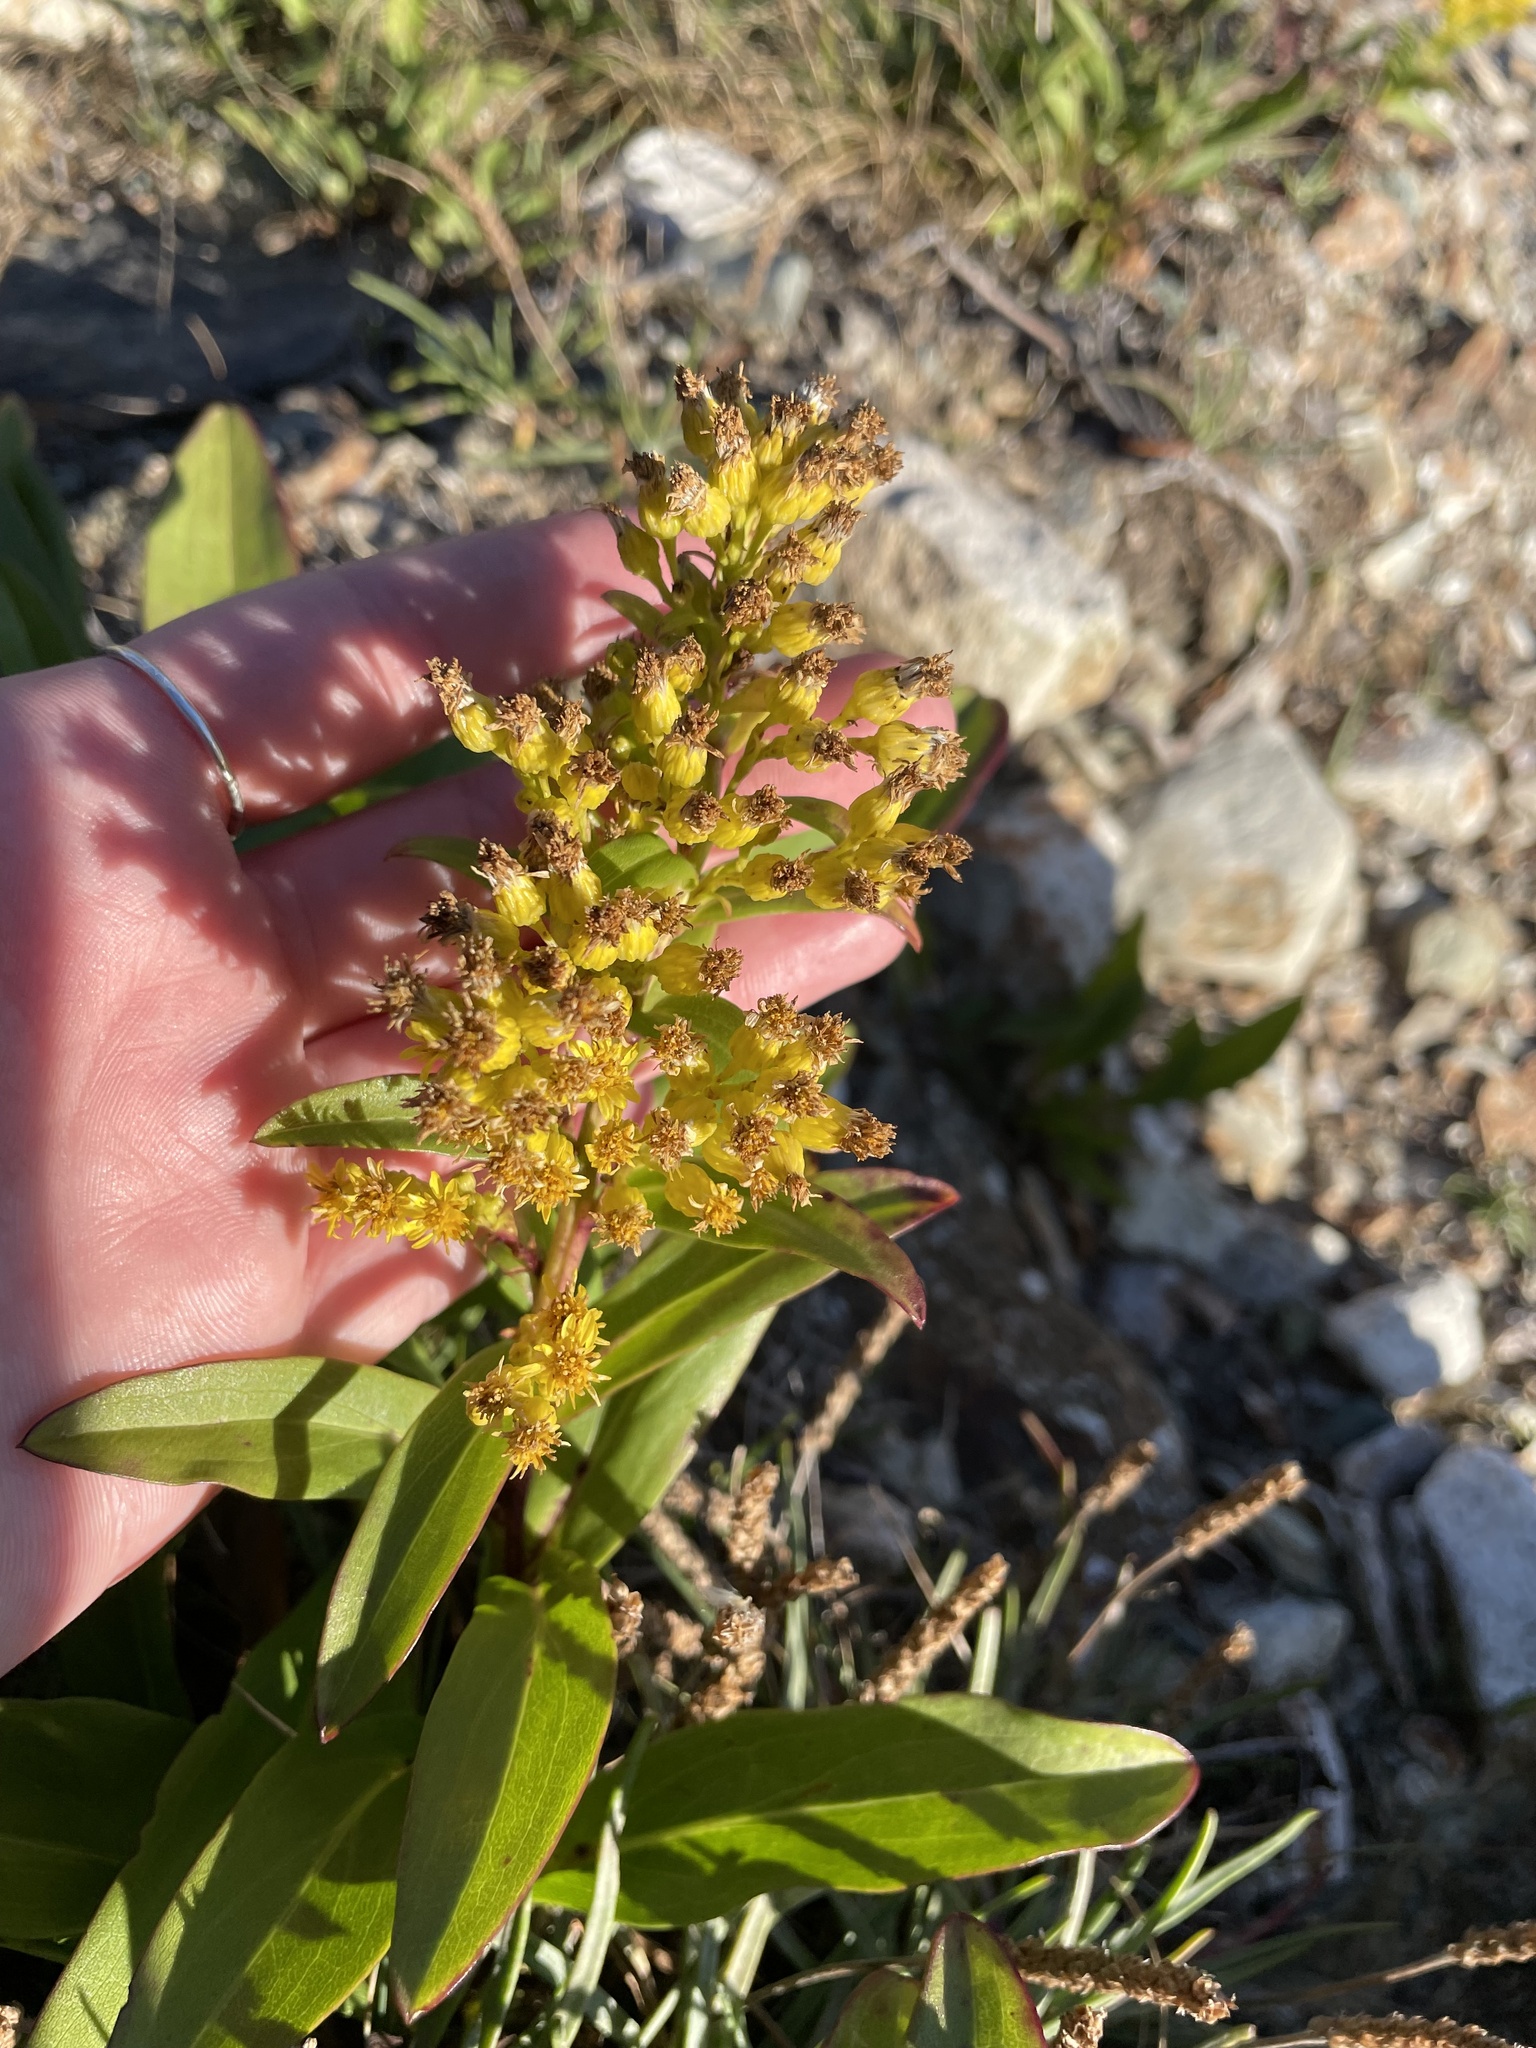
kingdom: Plantae
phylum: Tracheophyta
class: Magnoliopsida
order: Asterales
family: Asteraceae
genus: Solidago
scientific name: Solidago sempervirens
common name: Salt-marsh goldenrod
